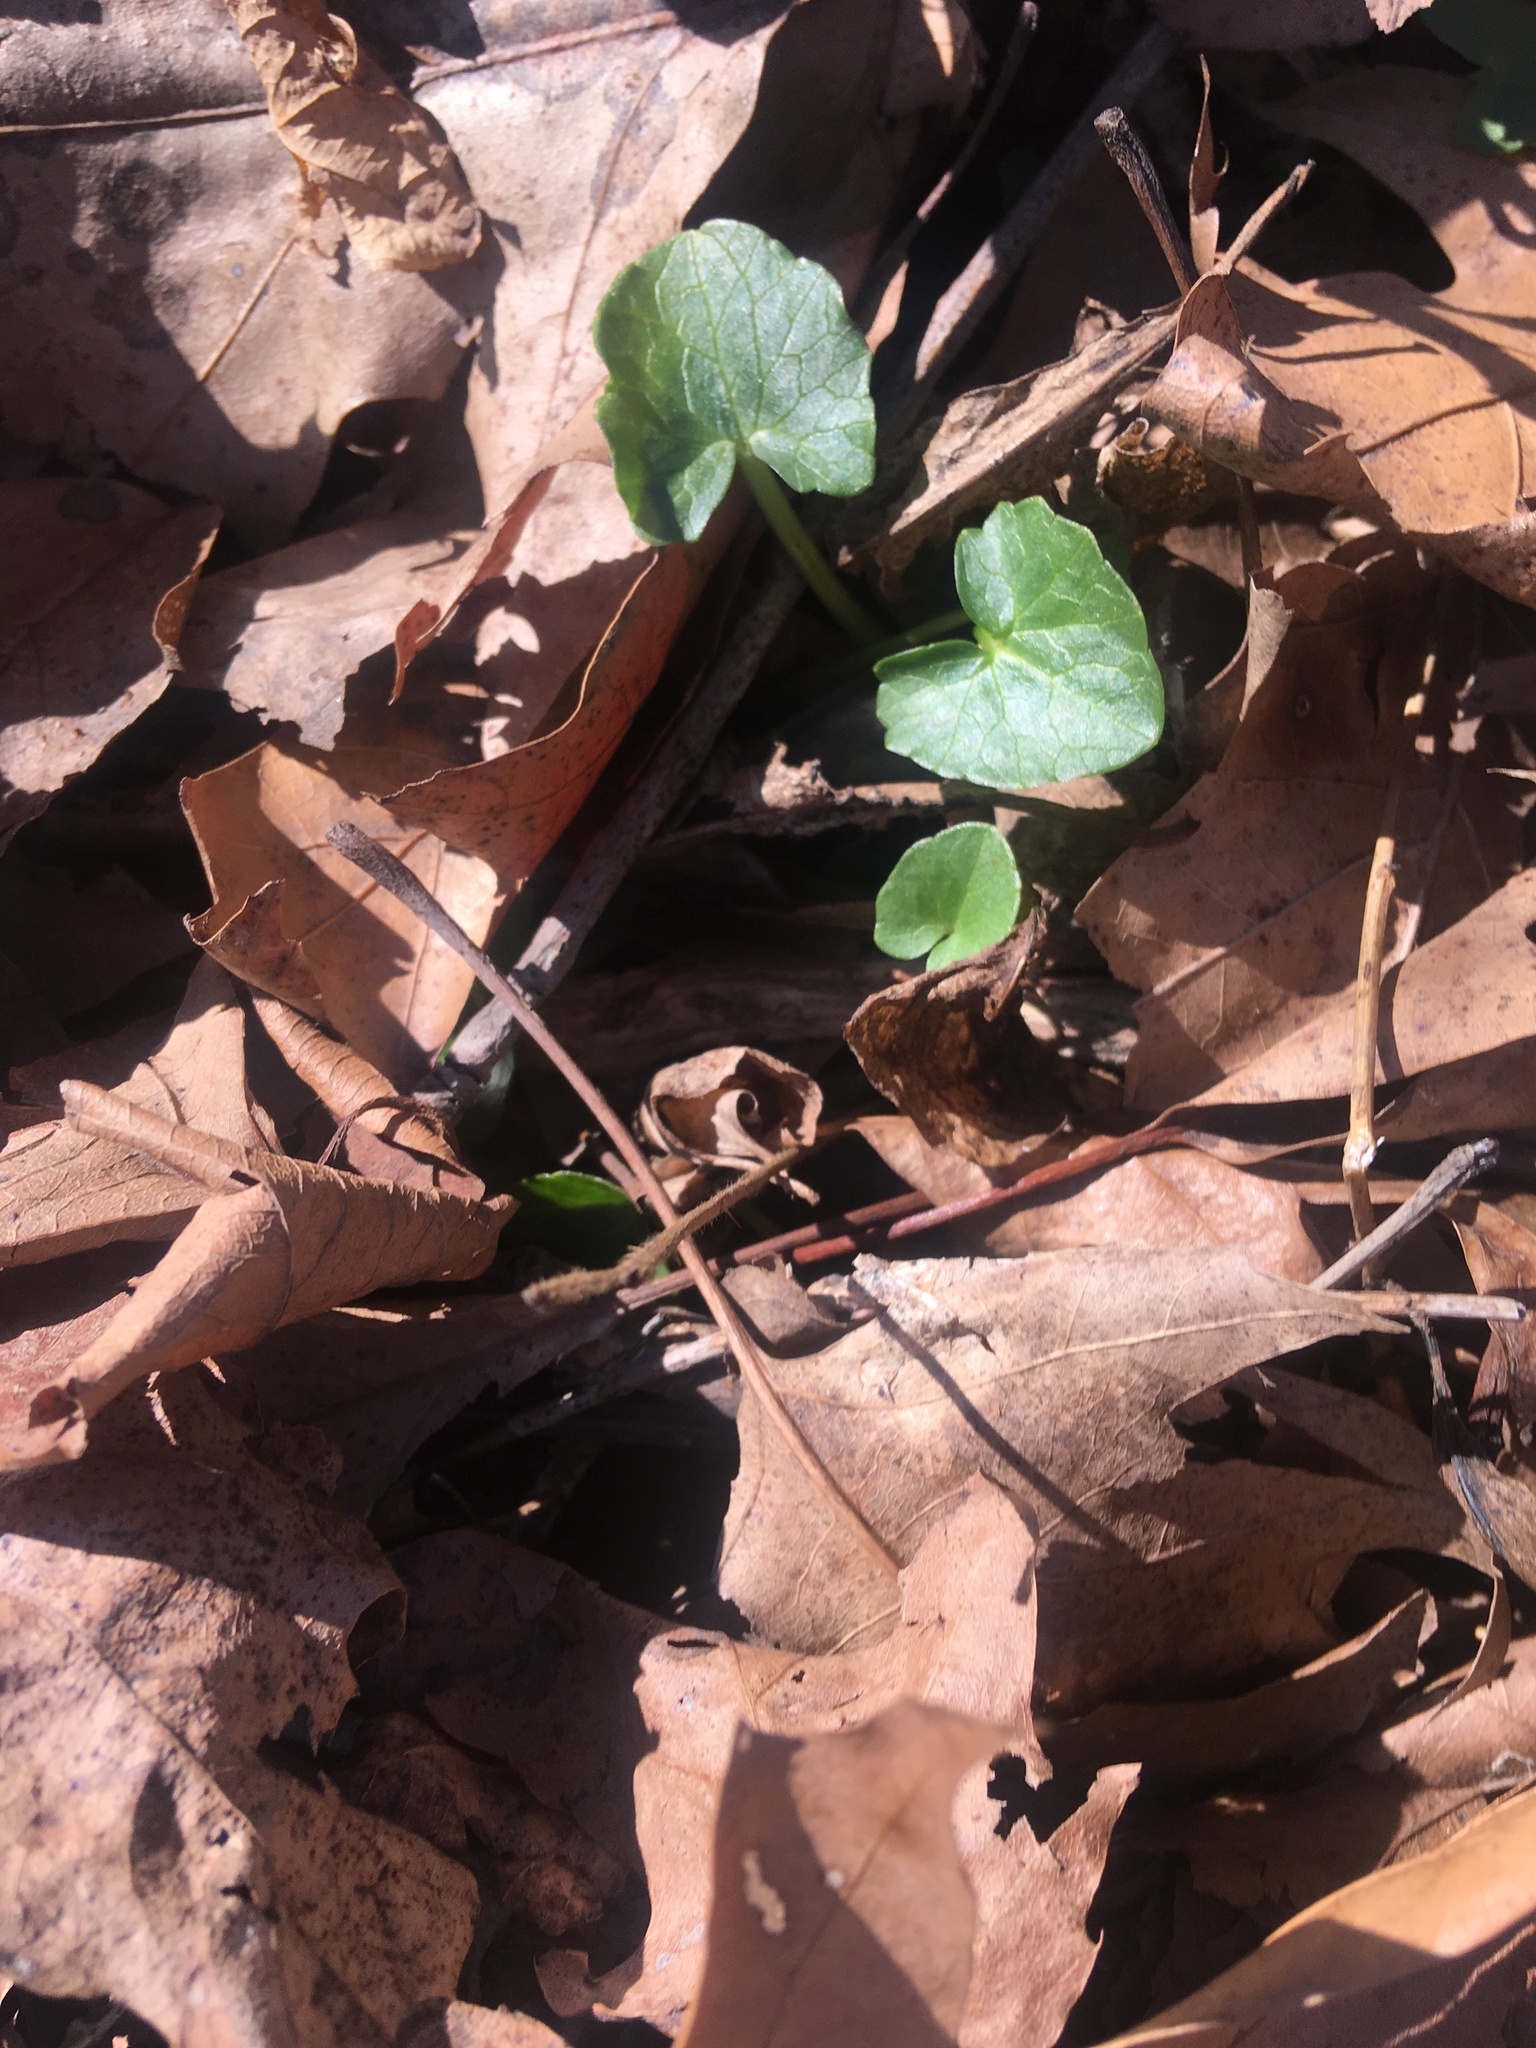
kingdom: Plantae
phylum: Tracheophyta
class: Magnoliopsida
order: Ranunculales
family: Ranunculaceae
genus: Ficaria
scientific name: Ficaria verna
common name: Lesser celandine
